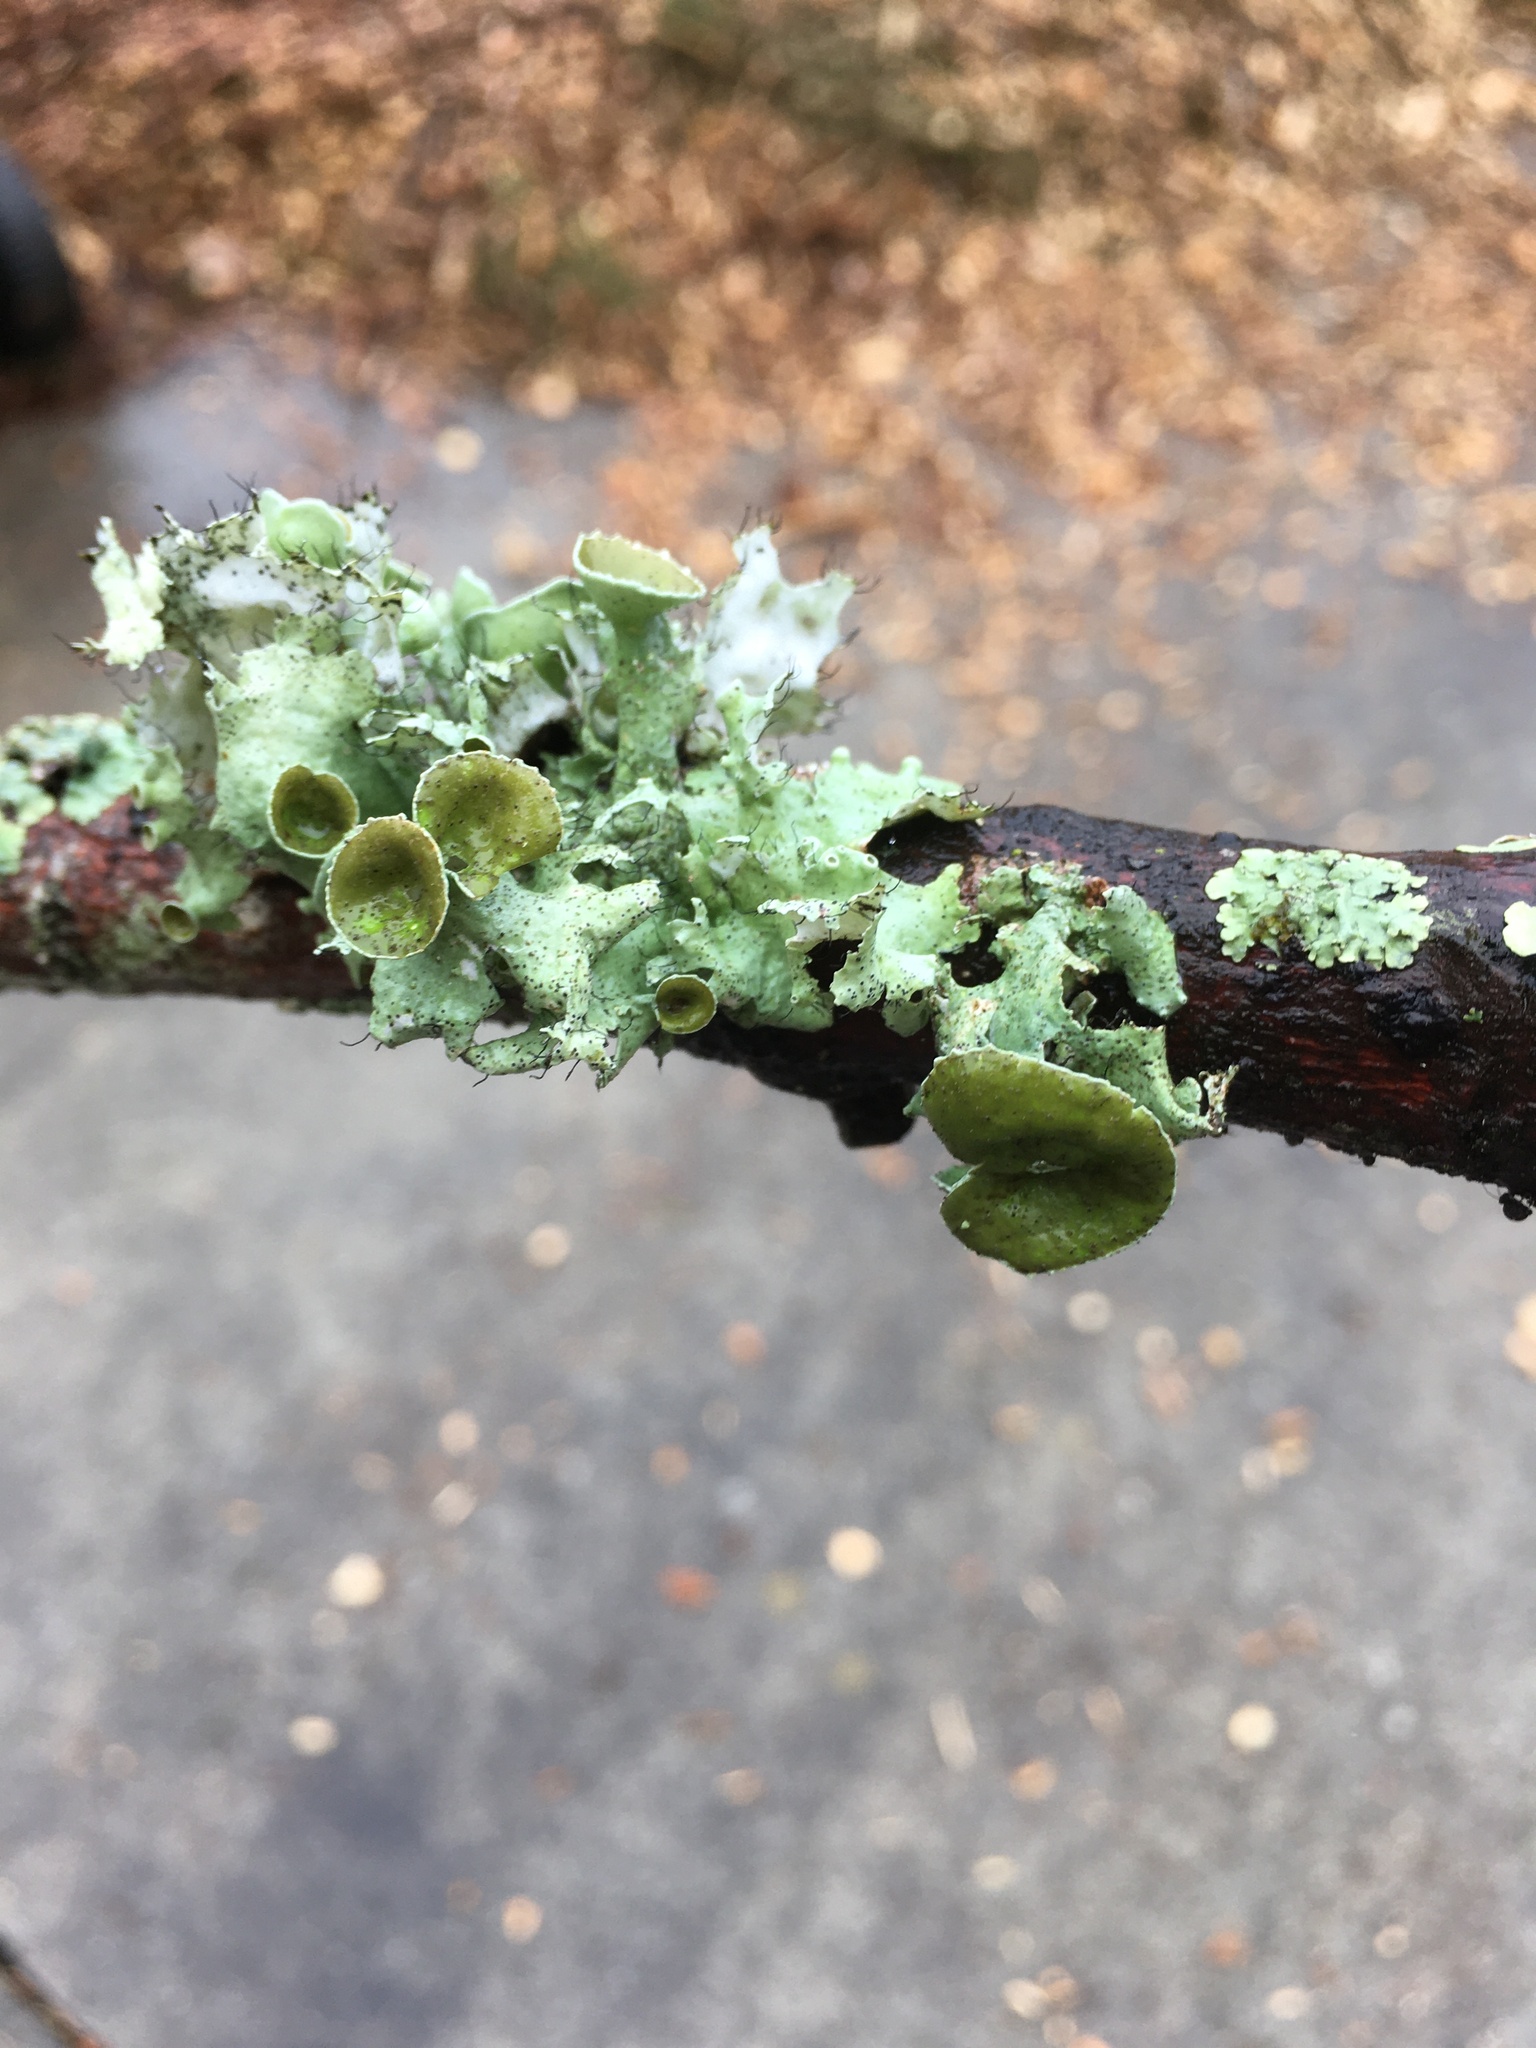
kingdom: Fungi
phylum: Ascomycota
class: Lecanoromycetes
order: Lecanorales
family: Parmeliaceae
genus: Parmotrema
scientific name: Parmotrema perforatum
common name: Perforated ruffle lichen
